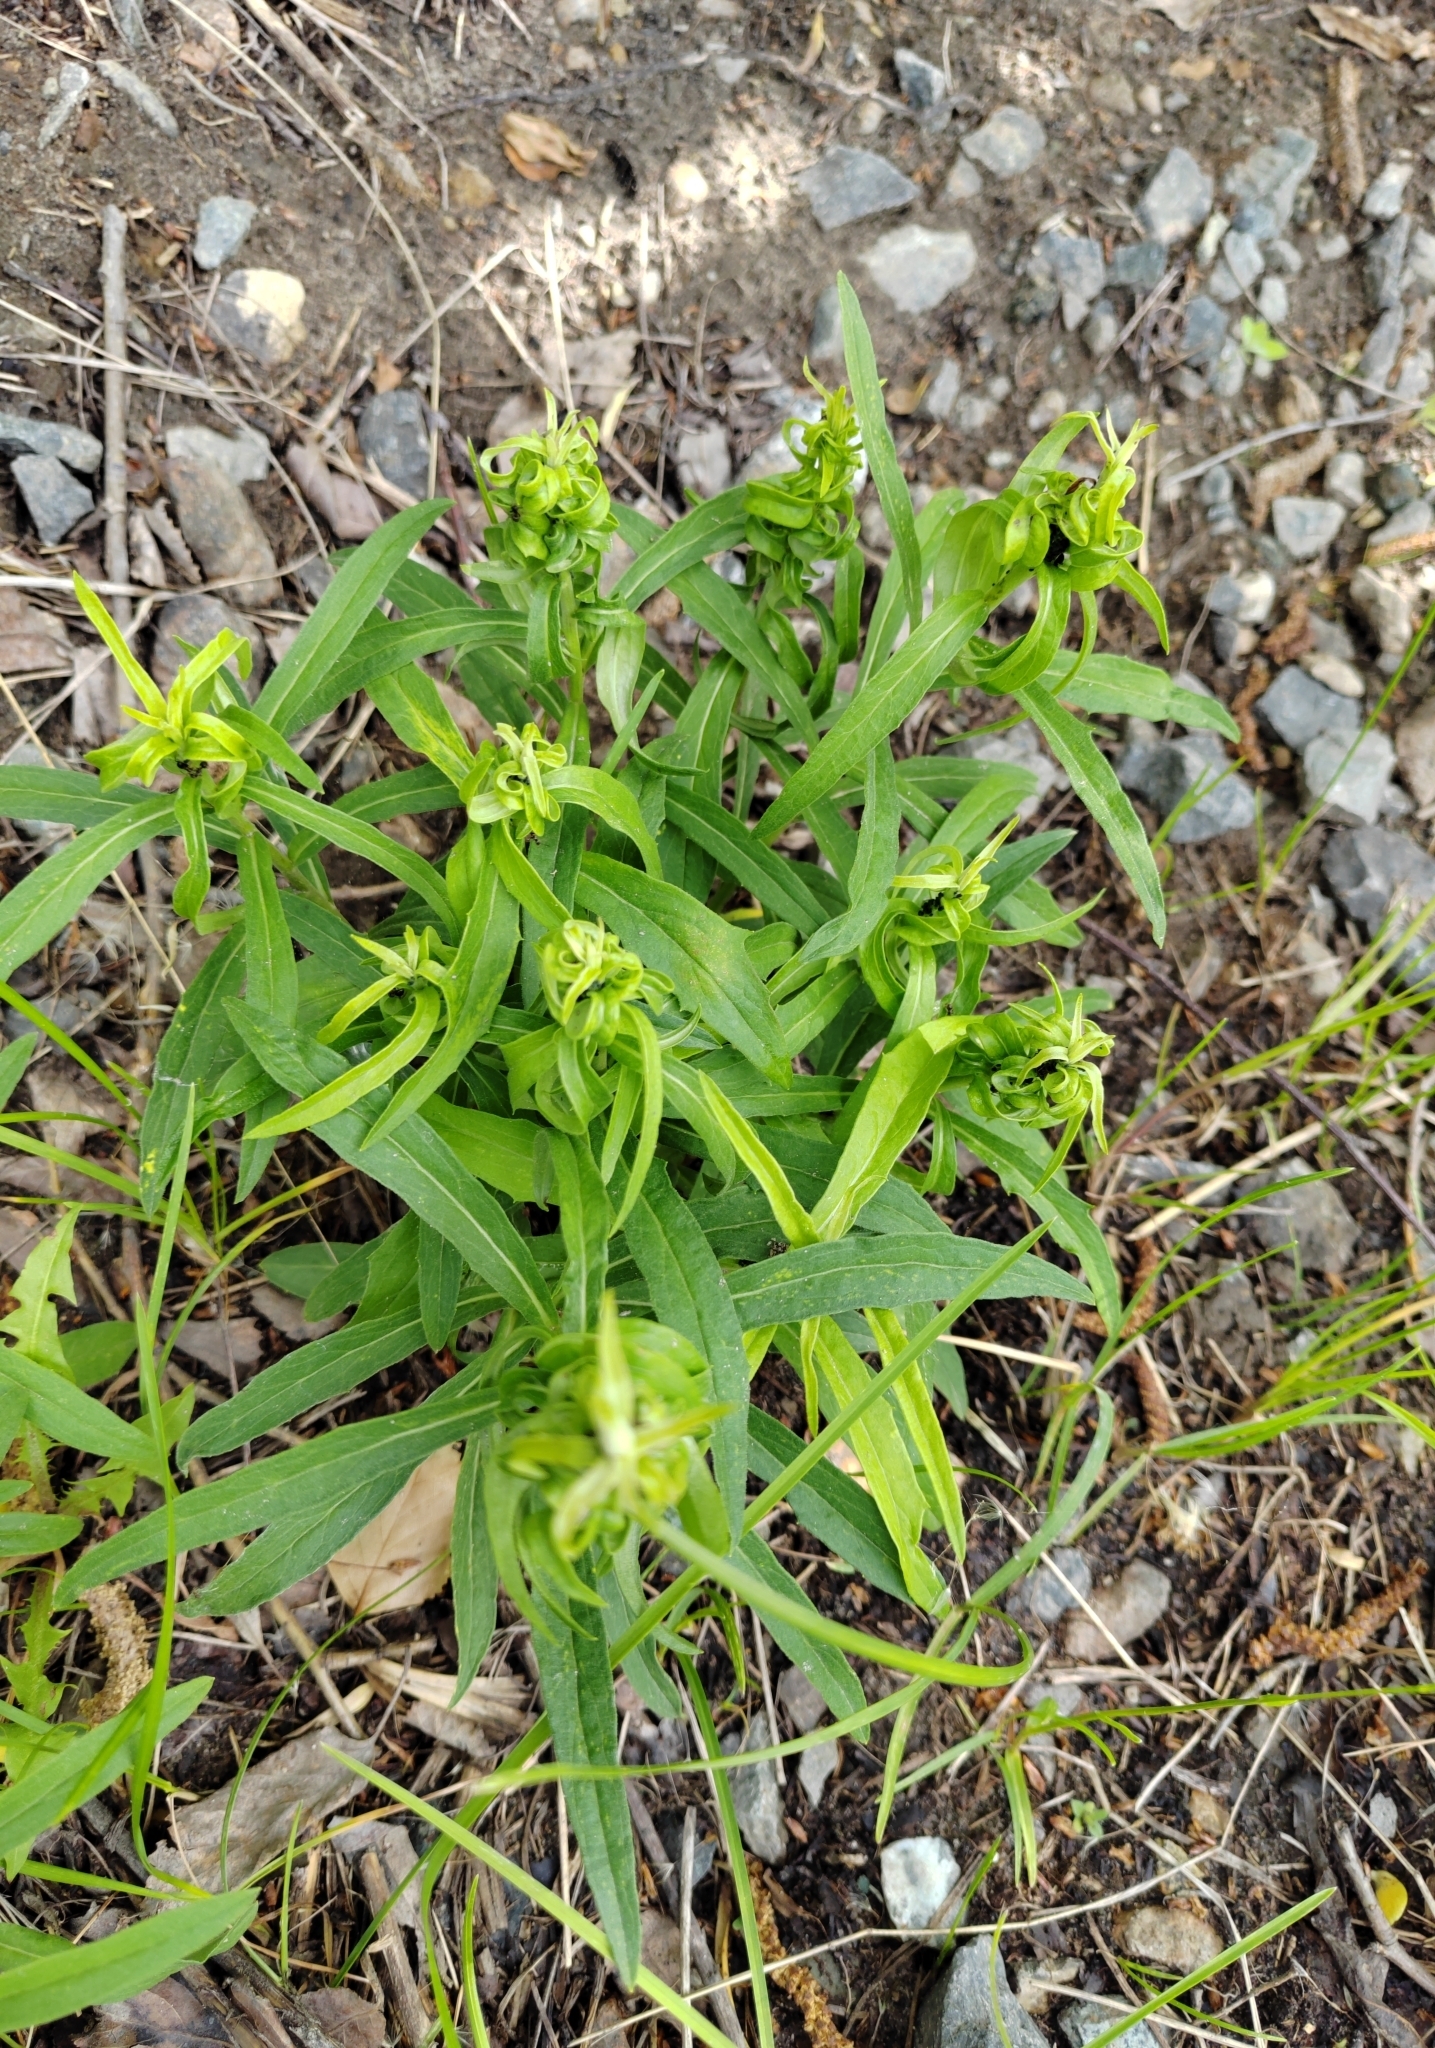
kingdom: Plantae
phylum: Tracheophyta
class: Magnoliopsida
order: Asterales
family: Asteraceae
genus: Hieracium
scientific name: Hieracium umbellatum
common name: Northern hawkweed
